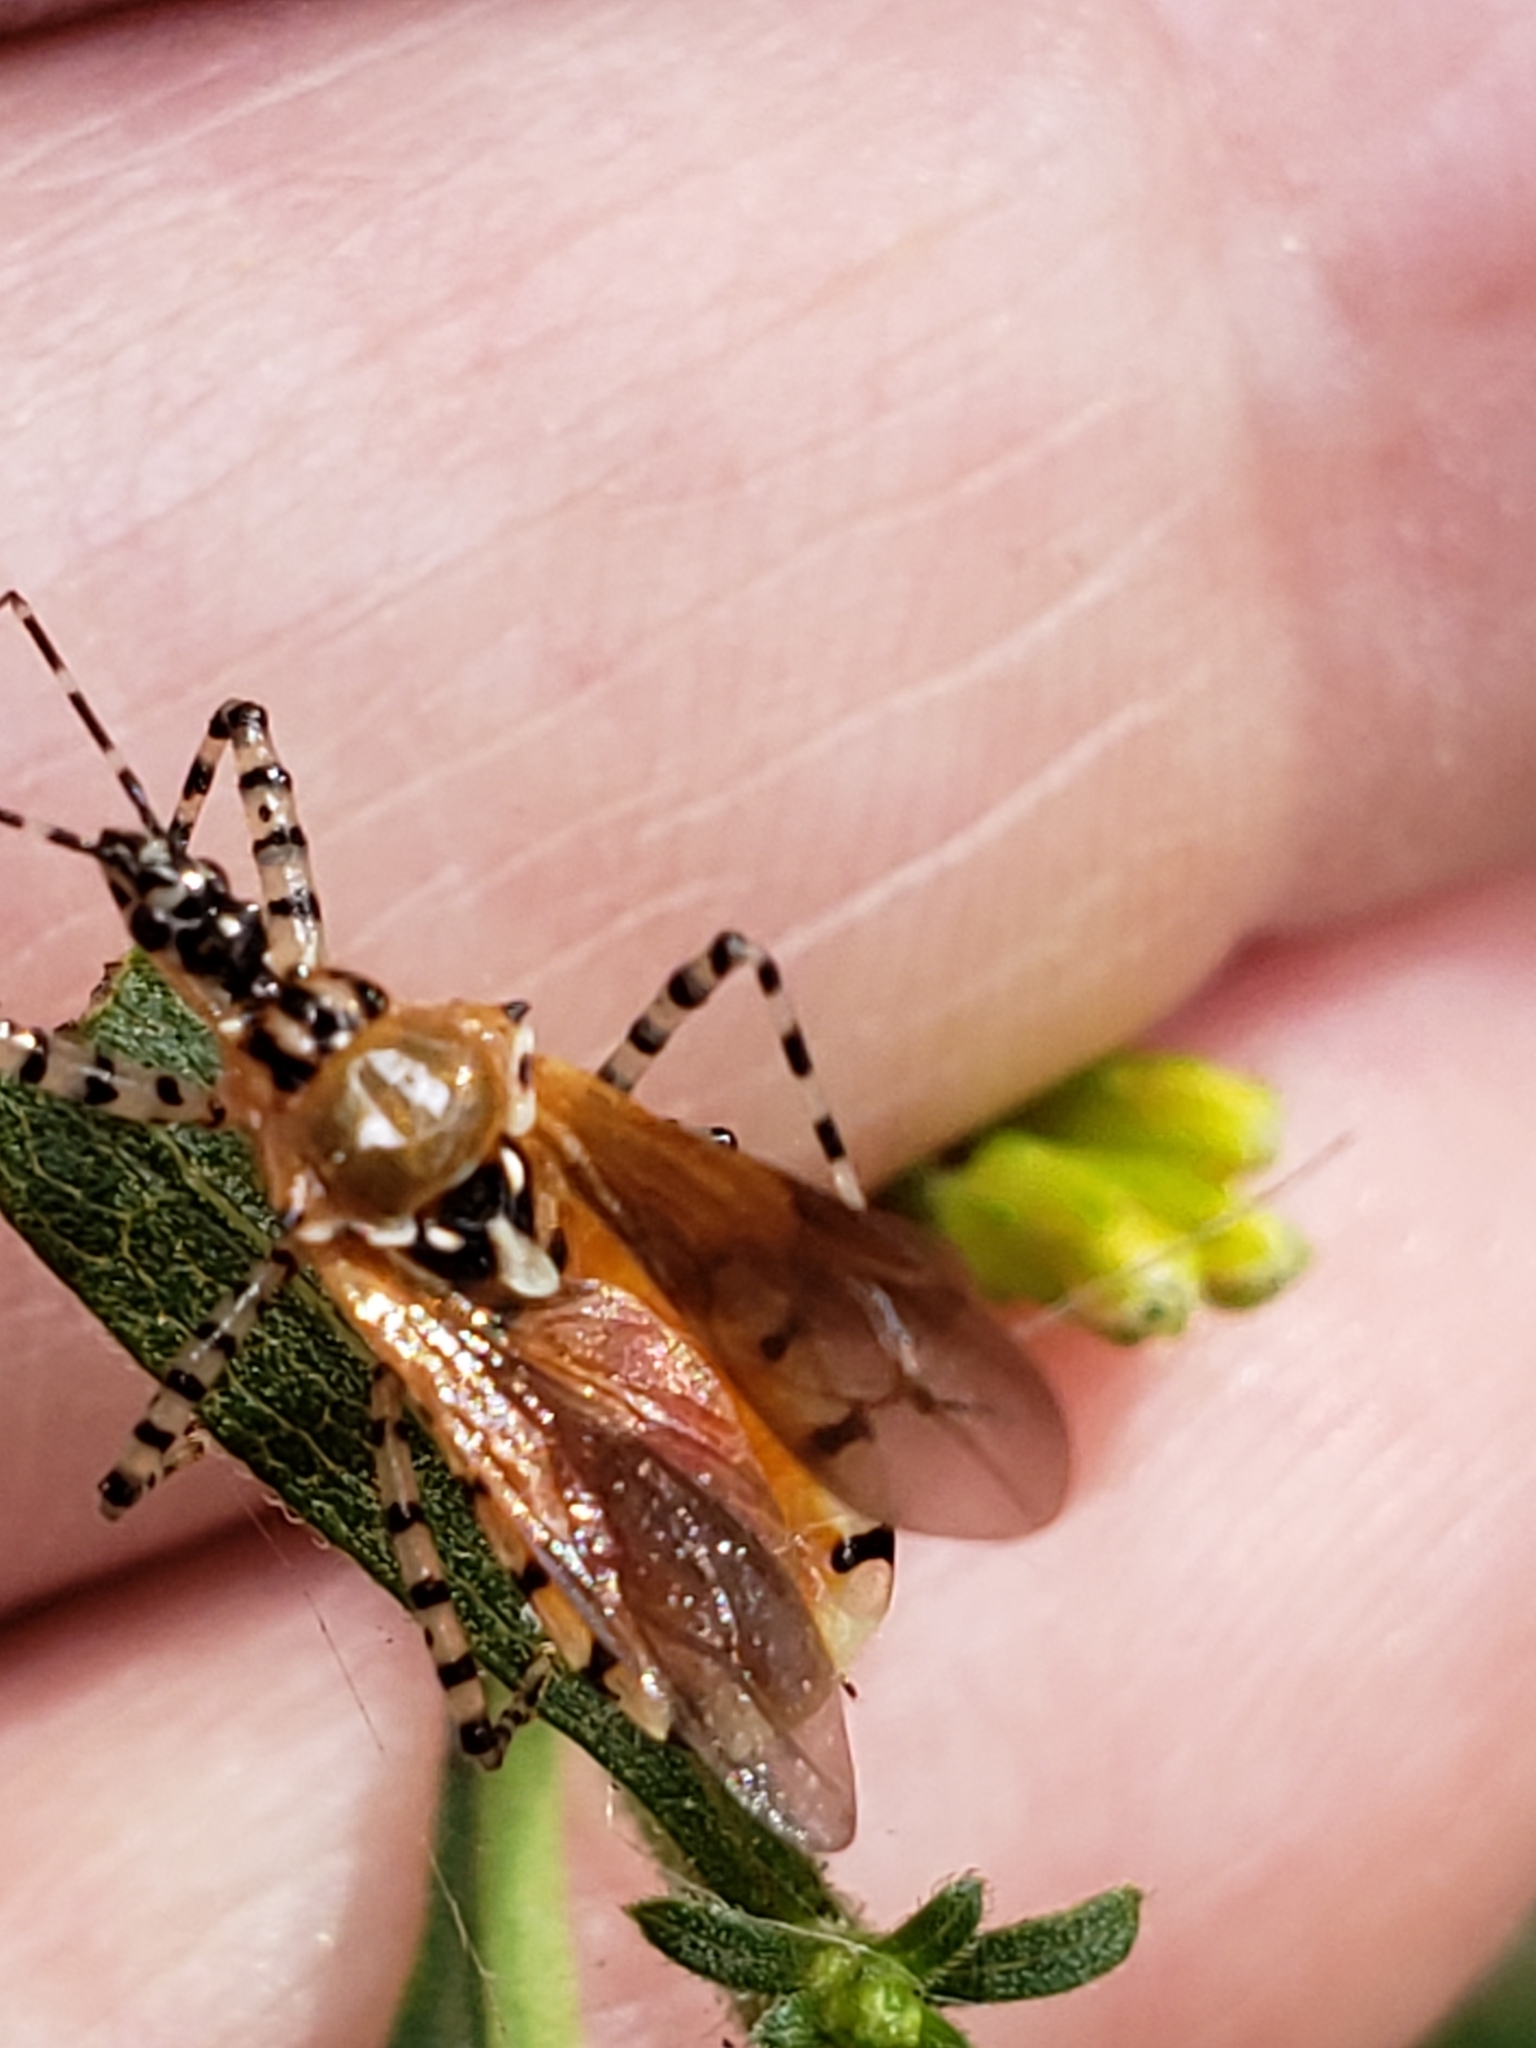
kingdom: Animalia
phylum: Arthropoda
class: Insecta
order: Hemiptera
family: Reduviidae
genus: Pselliopus
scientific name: Pselliopus cinctus
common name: Ringed assassin bug
